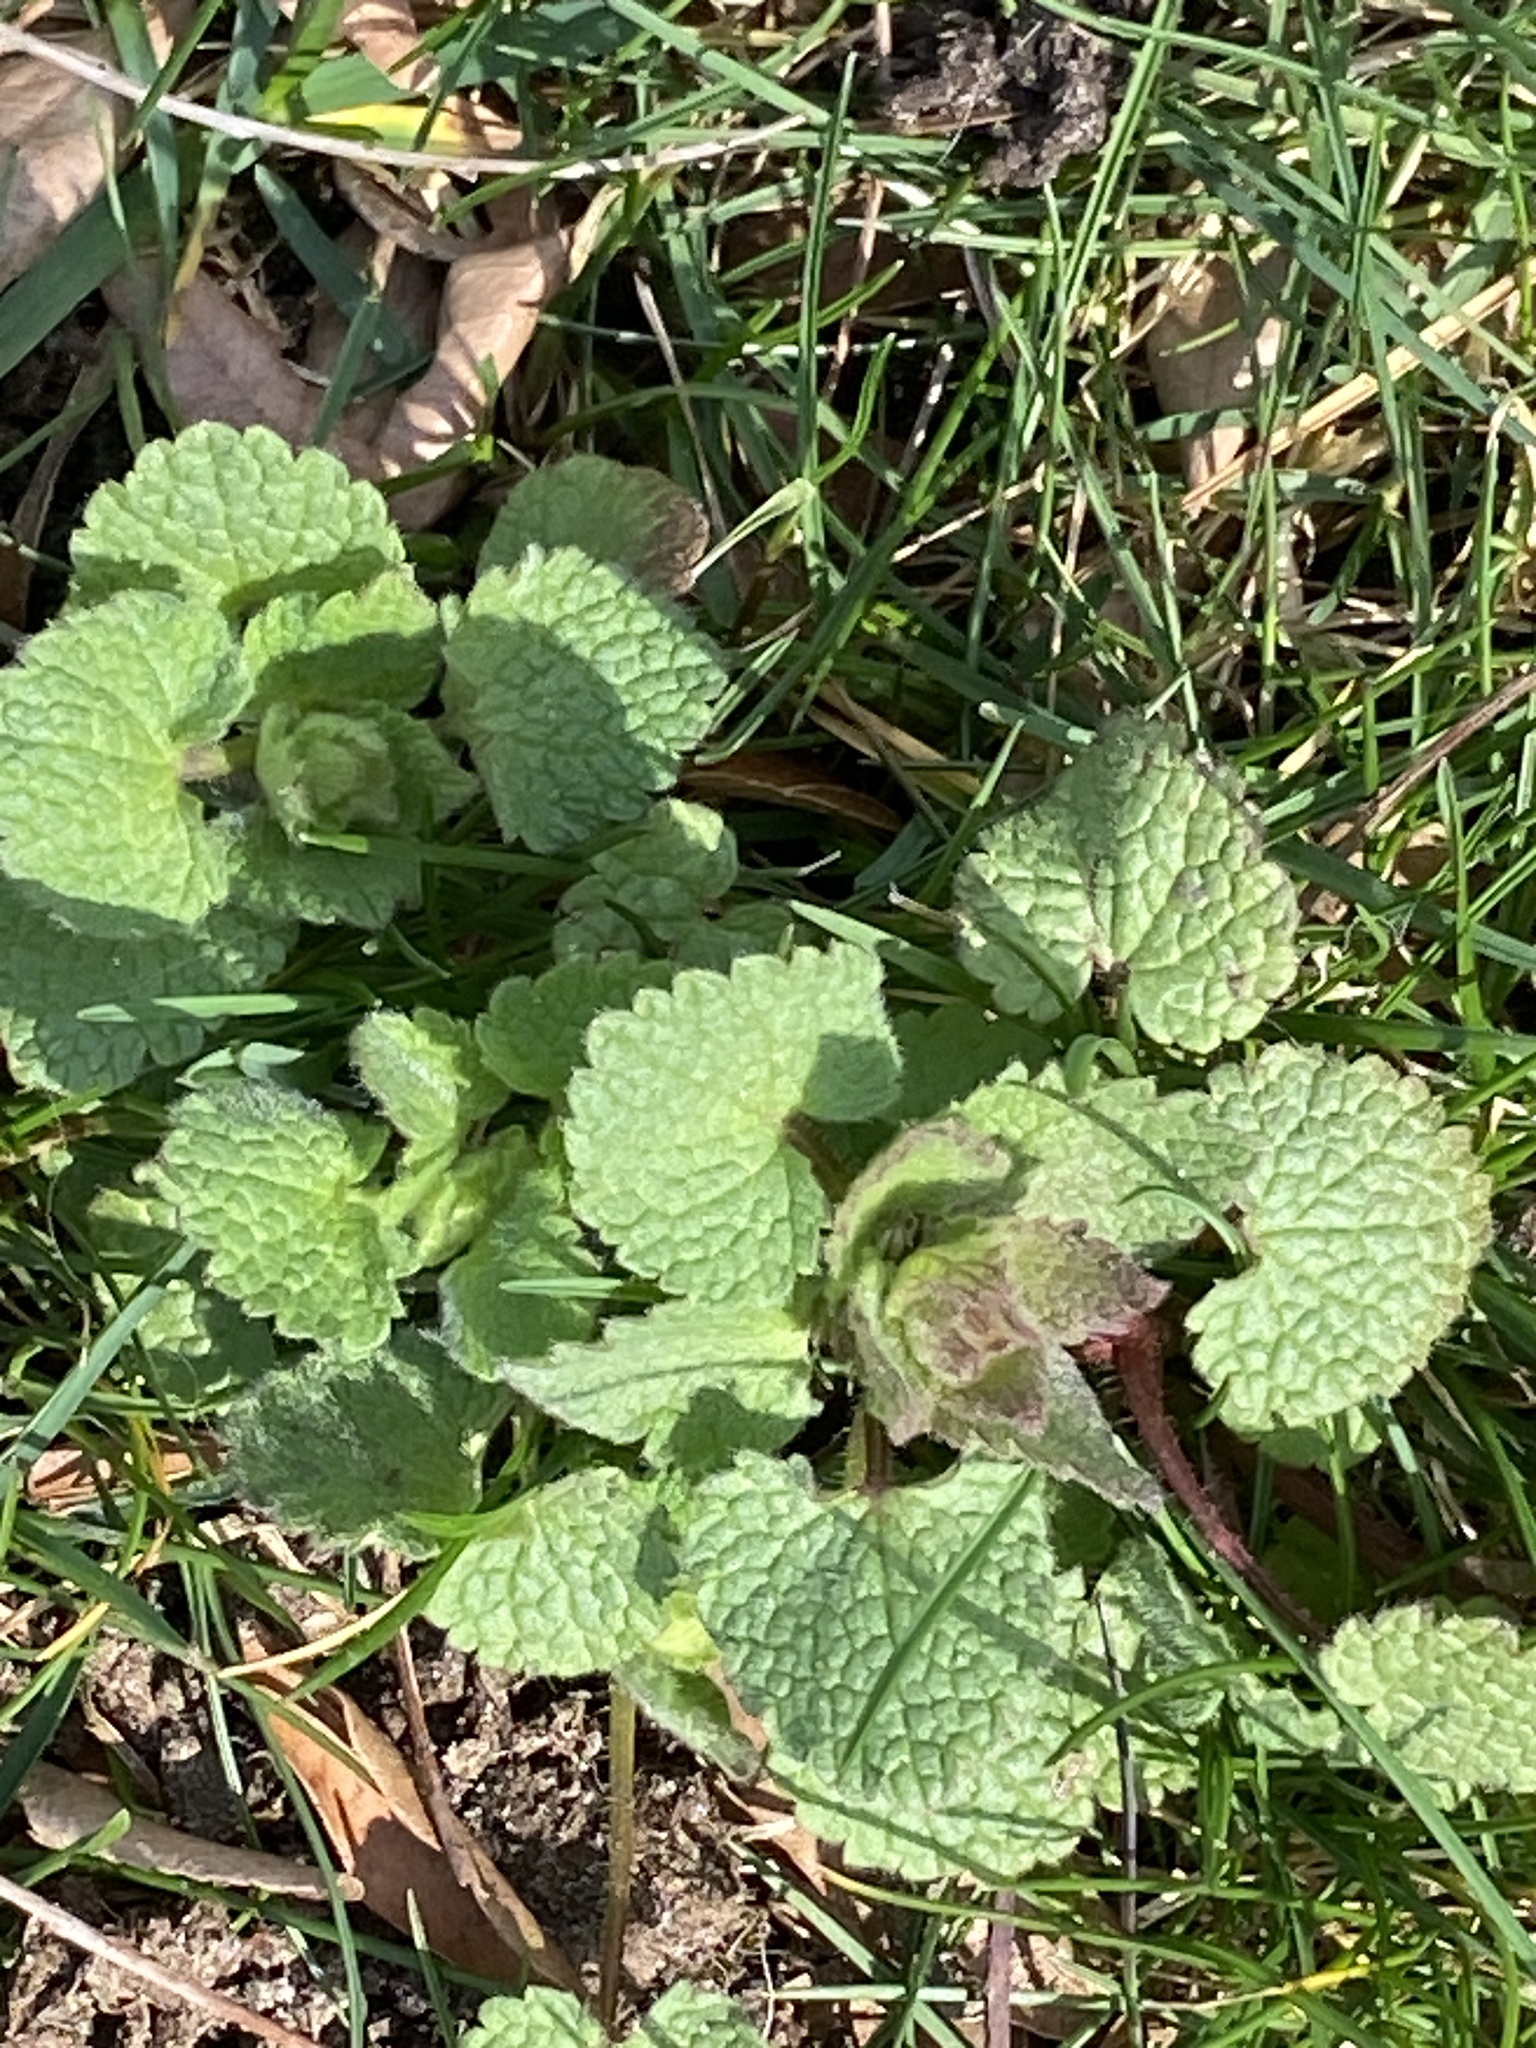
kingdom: Plantae
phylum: Tracheophyta
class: Magnoliopsida
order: Lamiales
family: Lamiaceae
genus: Lamium
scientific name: Lamium purpureum
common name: Red dead-nettle
